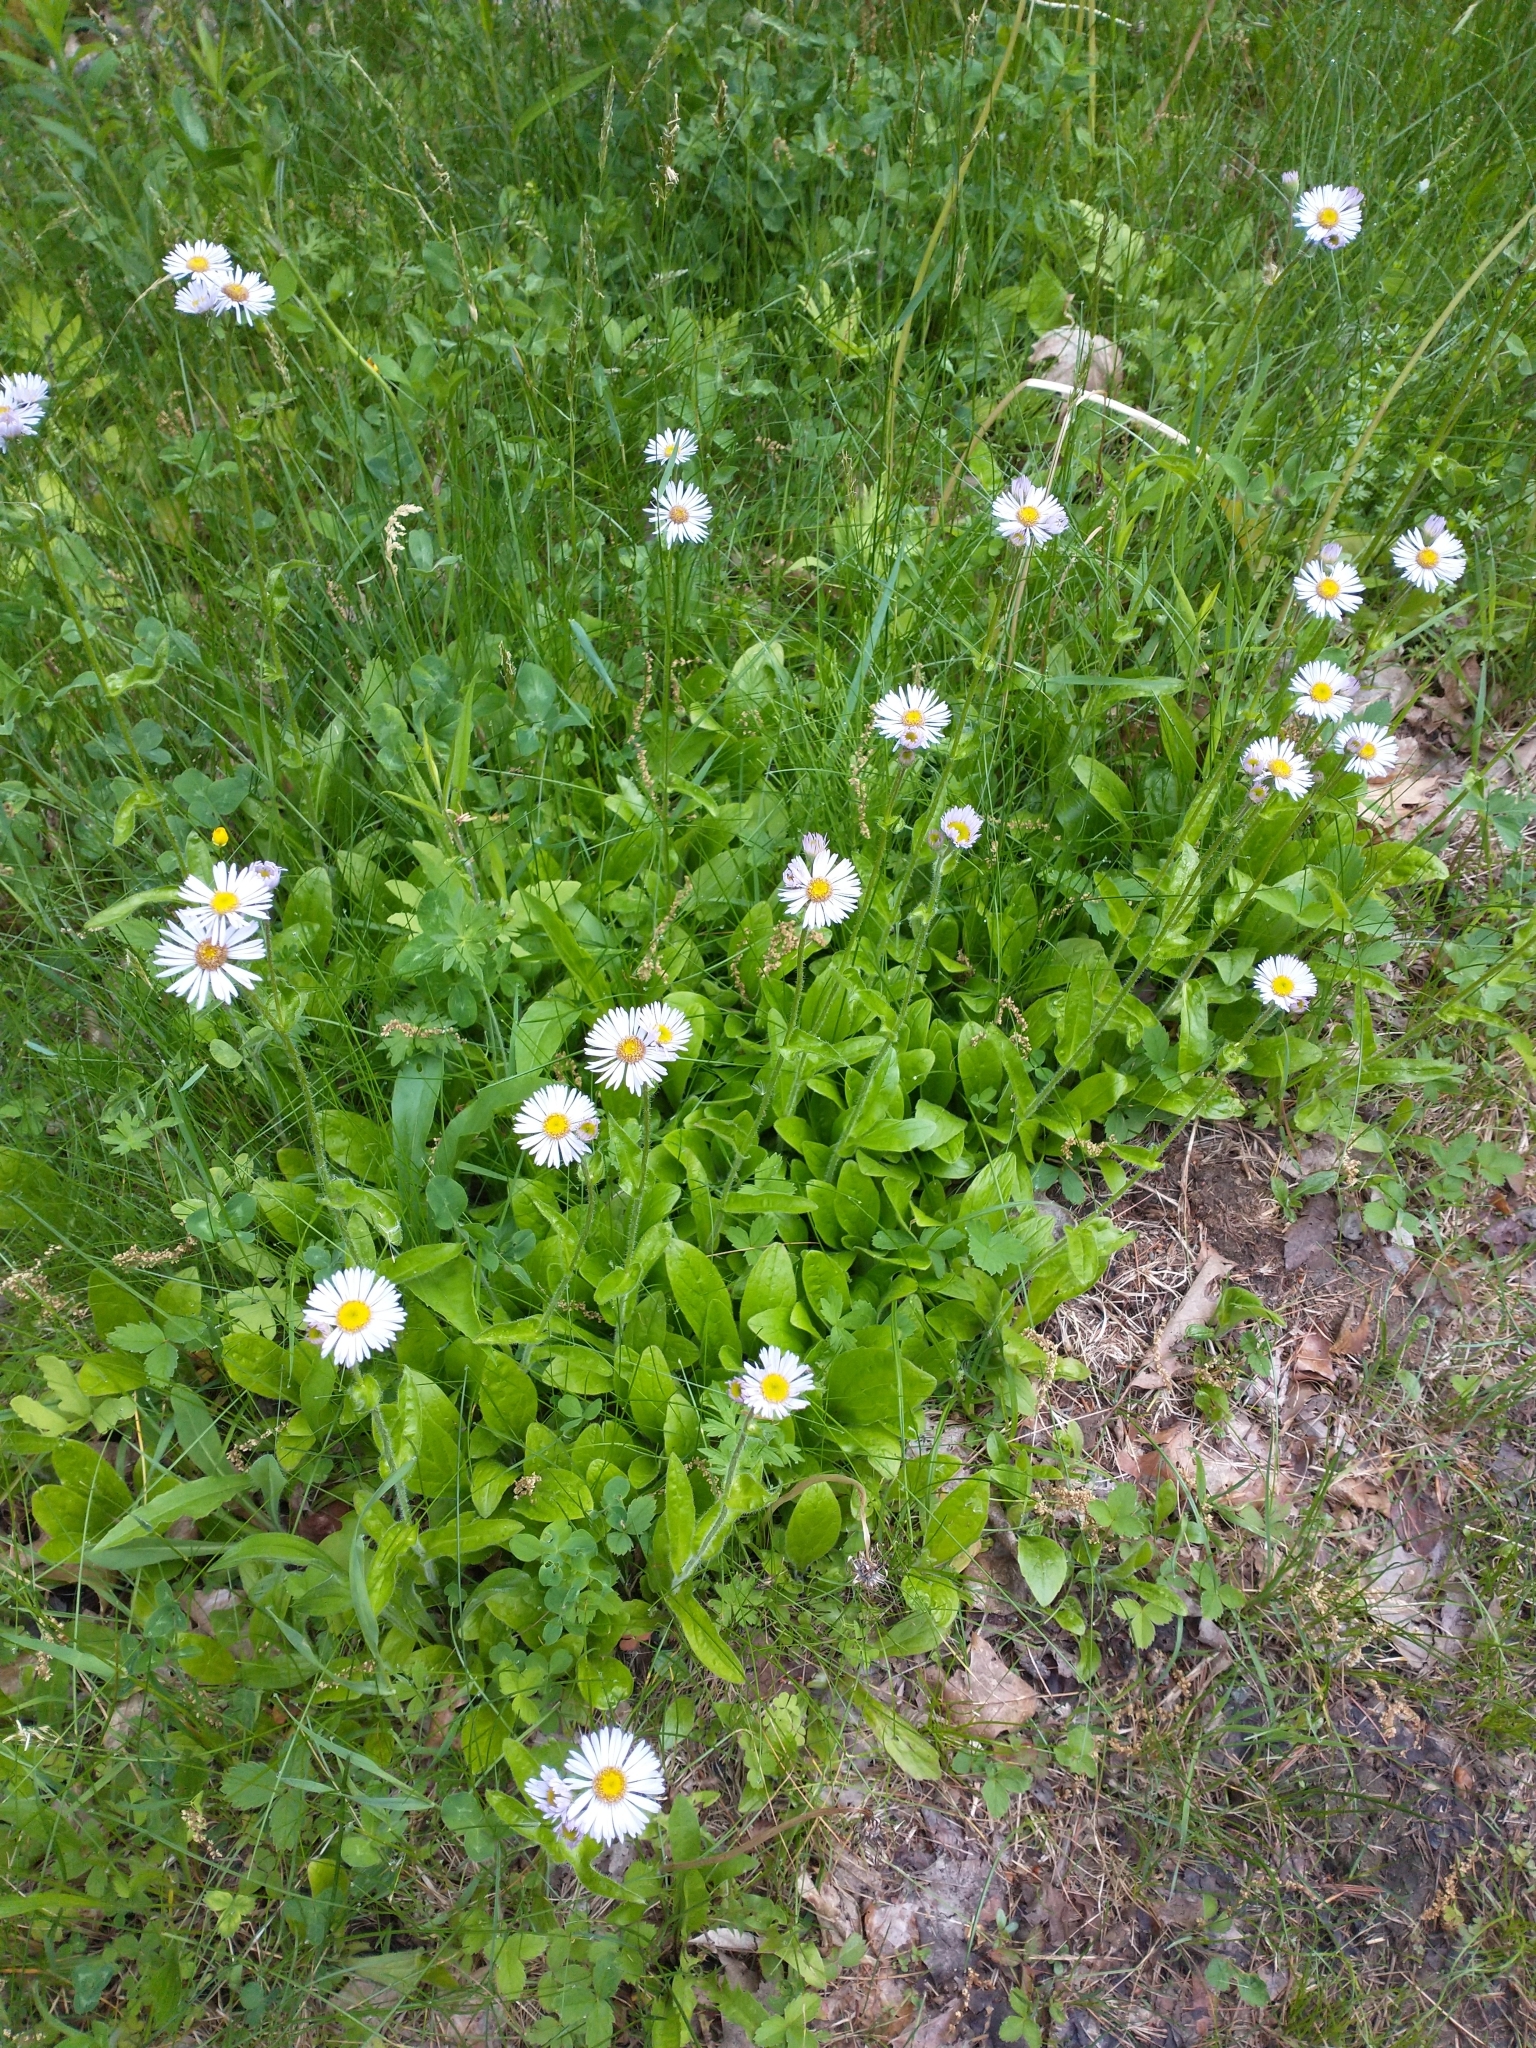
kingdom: Plantae
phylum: Tracheophyta
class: Magnoliopsida
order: Asterales
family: Asteraceae
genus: Erigeron
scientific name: Erigeron pulchellus
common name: Hairy fleabane
